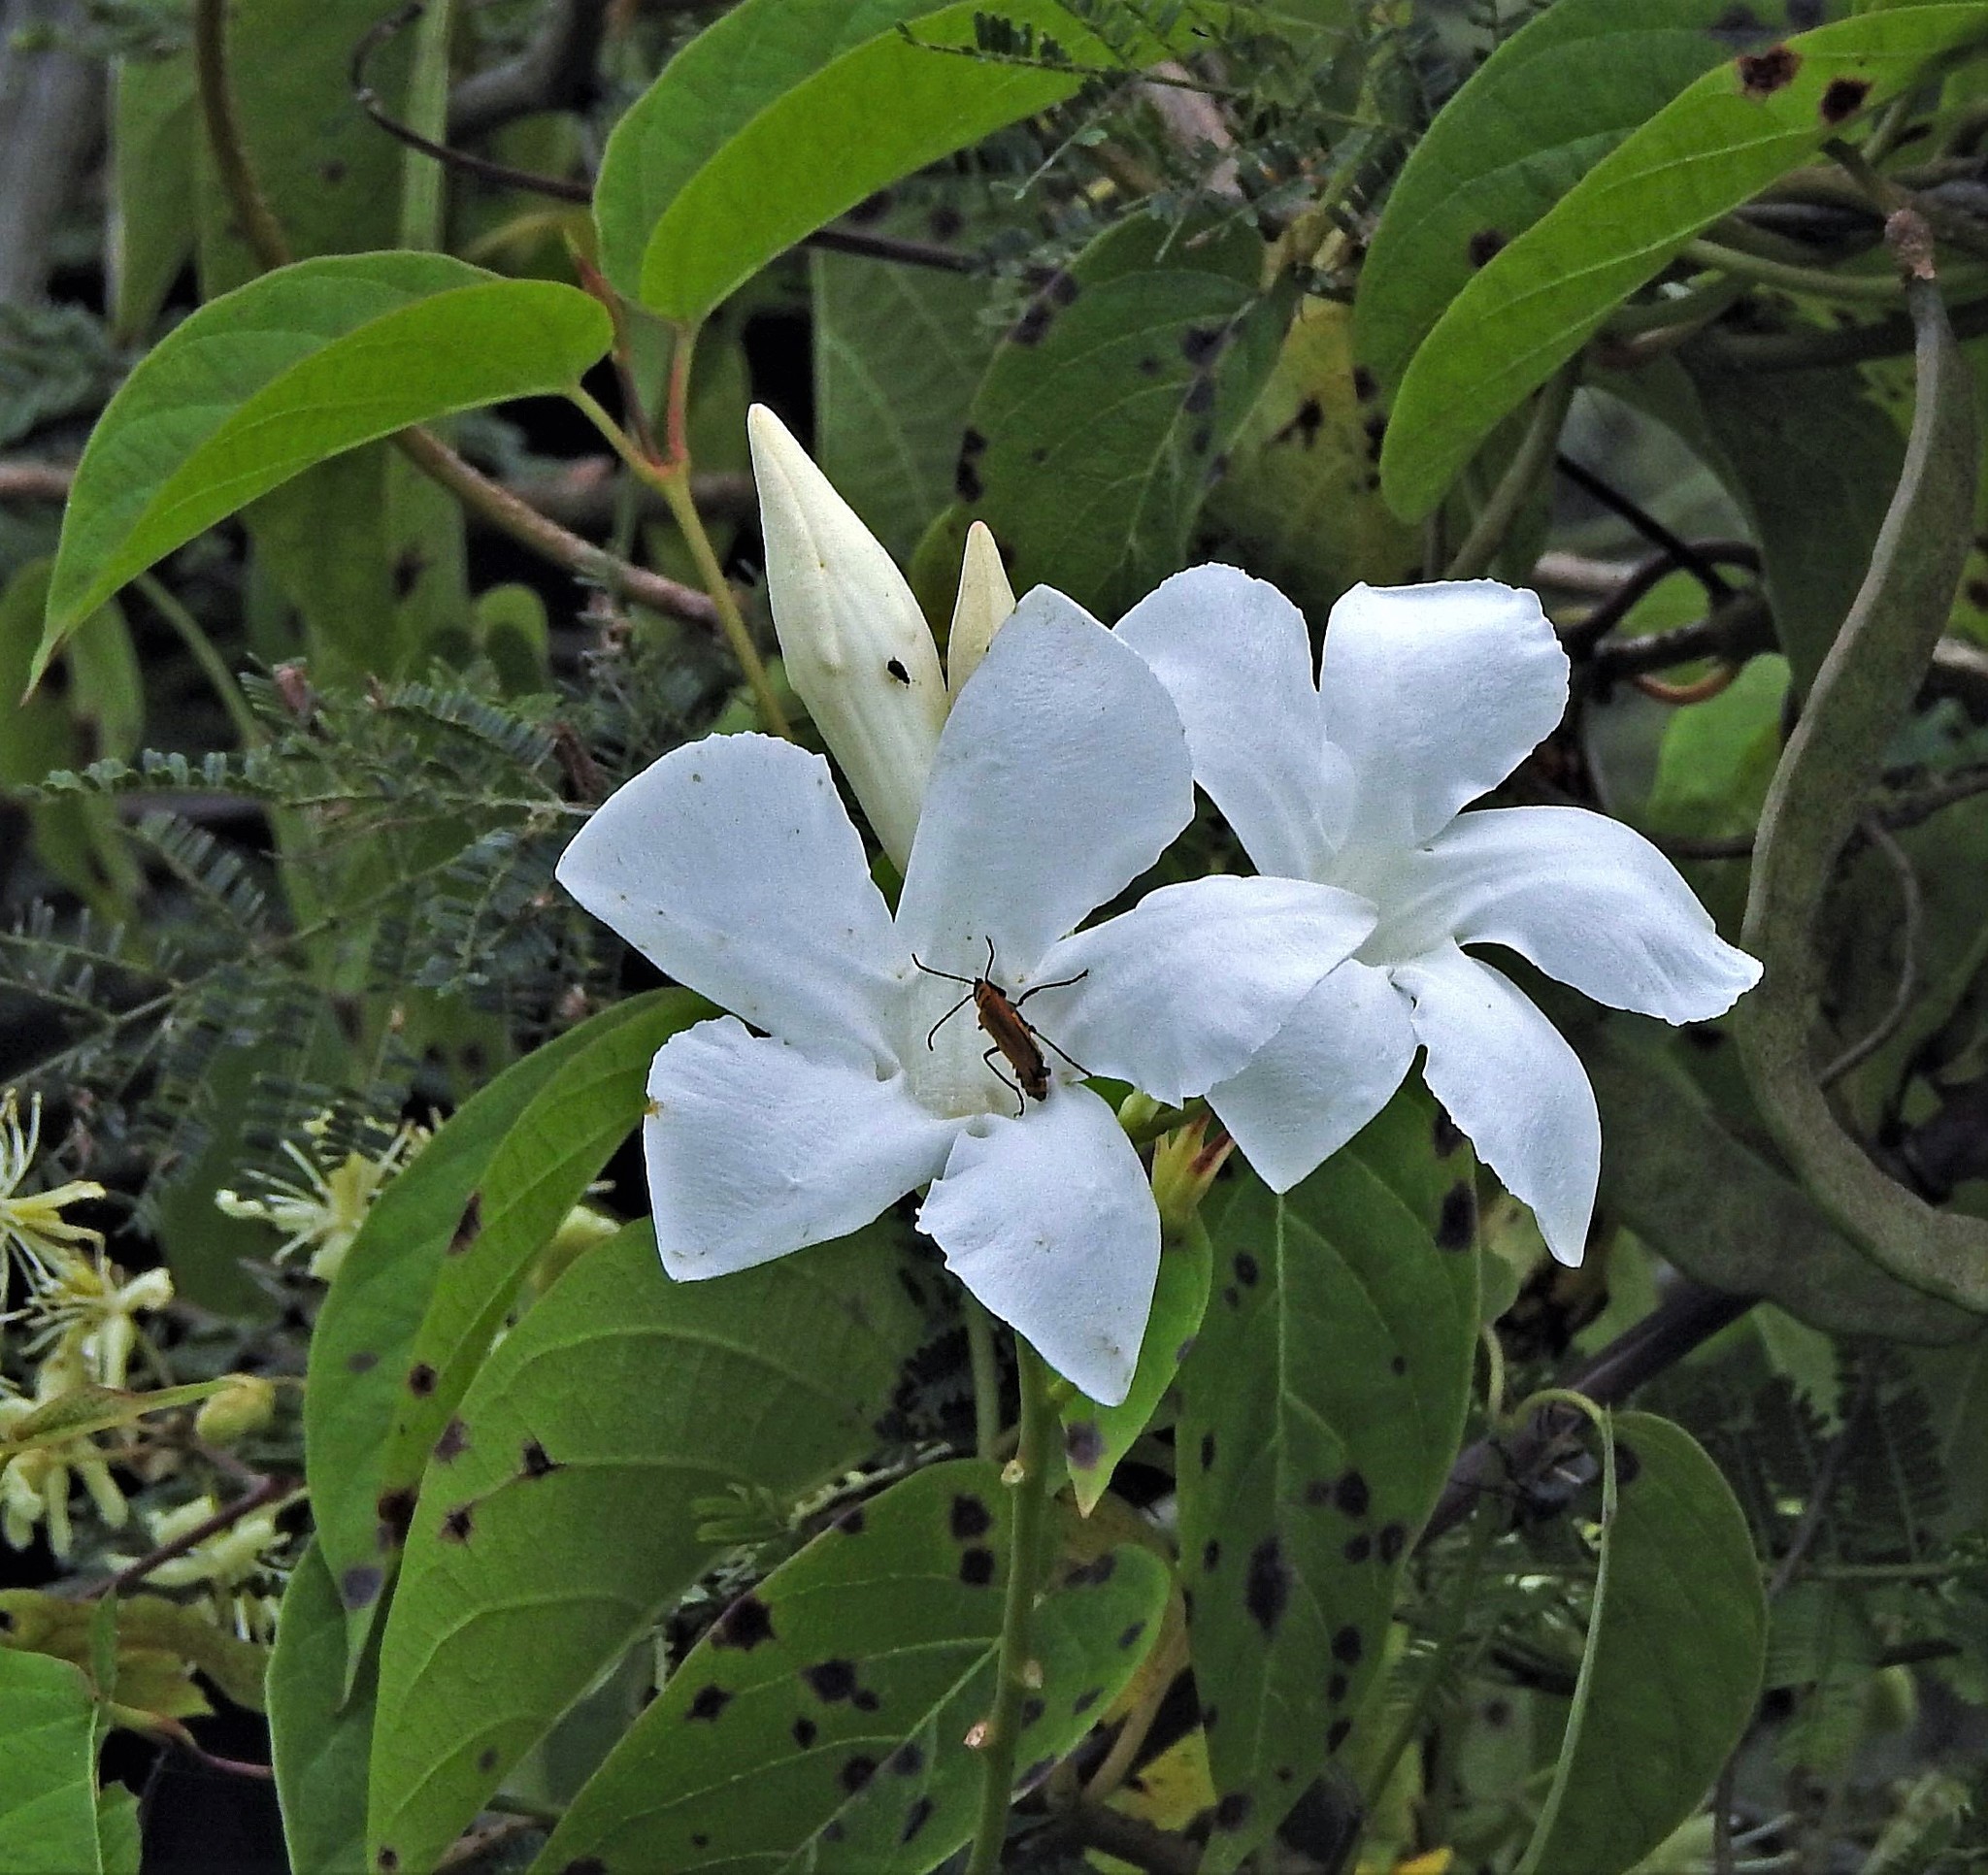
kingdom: Plantae
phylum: Tracheophyta
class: Magnoliopsida
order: Gentianales
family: Apocynaceae
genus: Mandevilla
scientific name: Mandevilla laxa
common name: Chilean-jasmine
